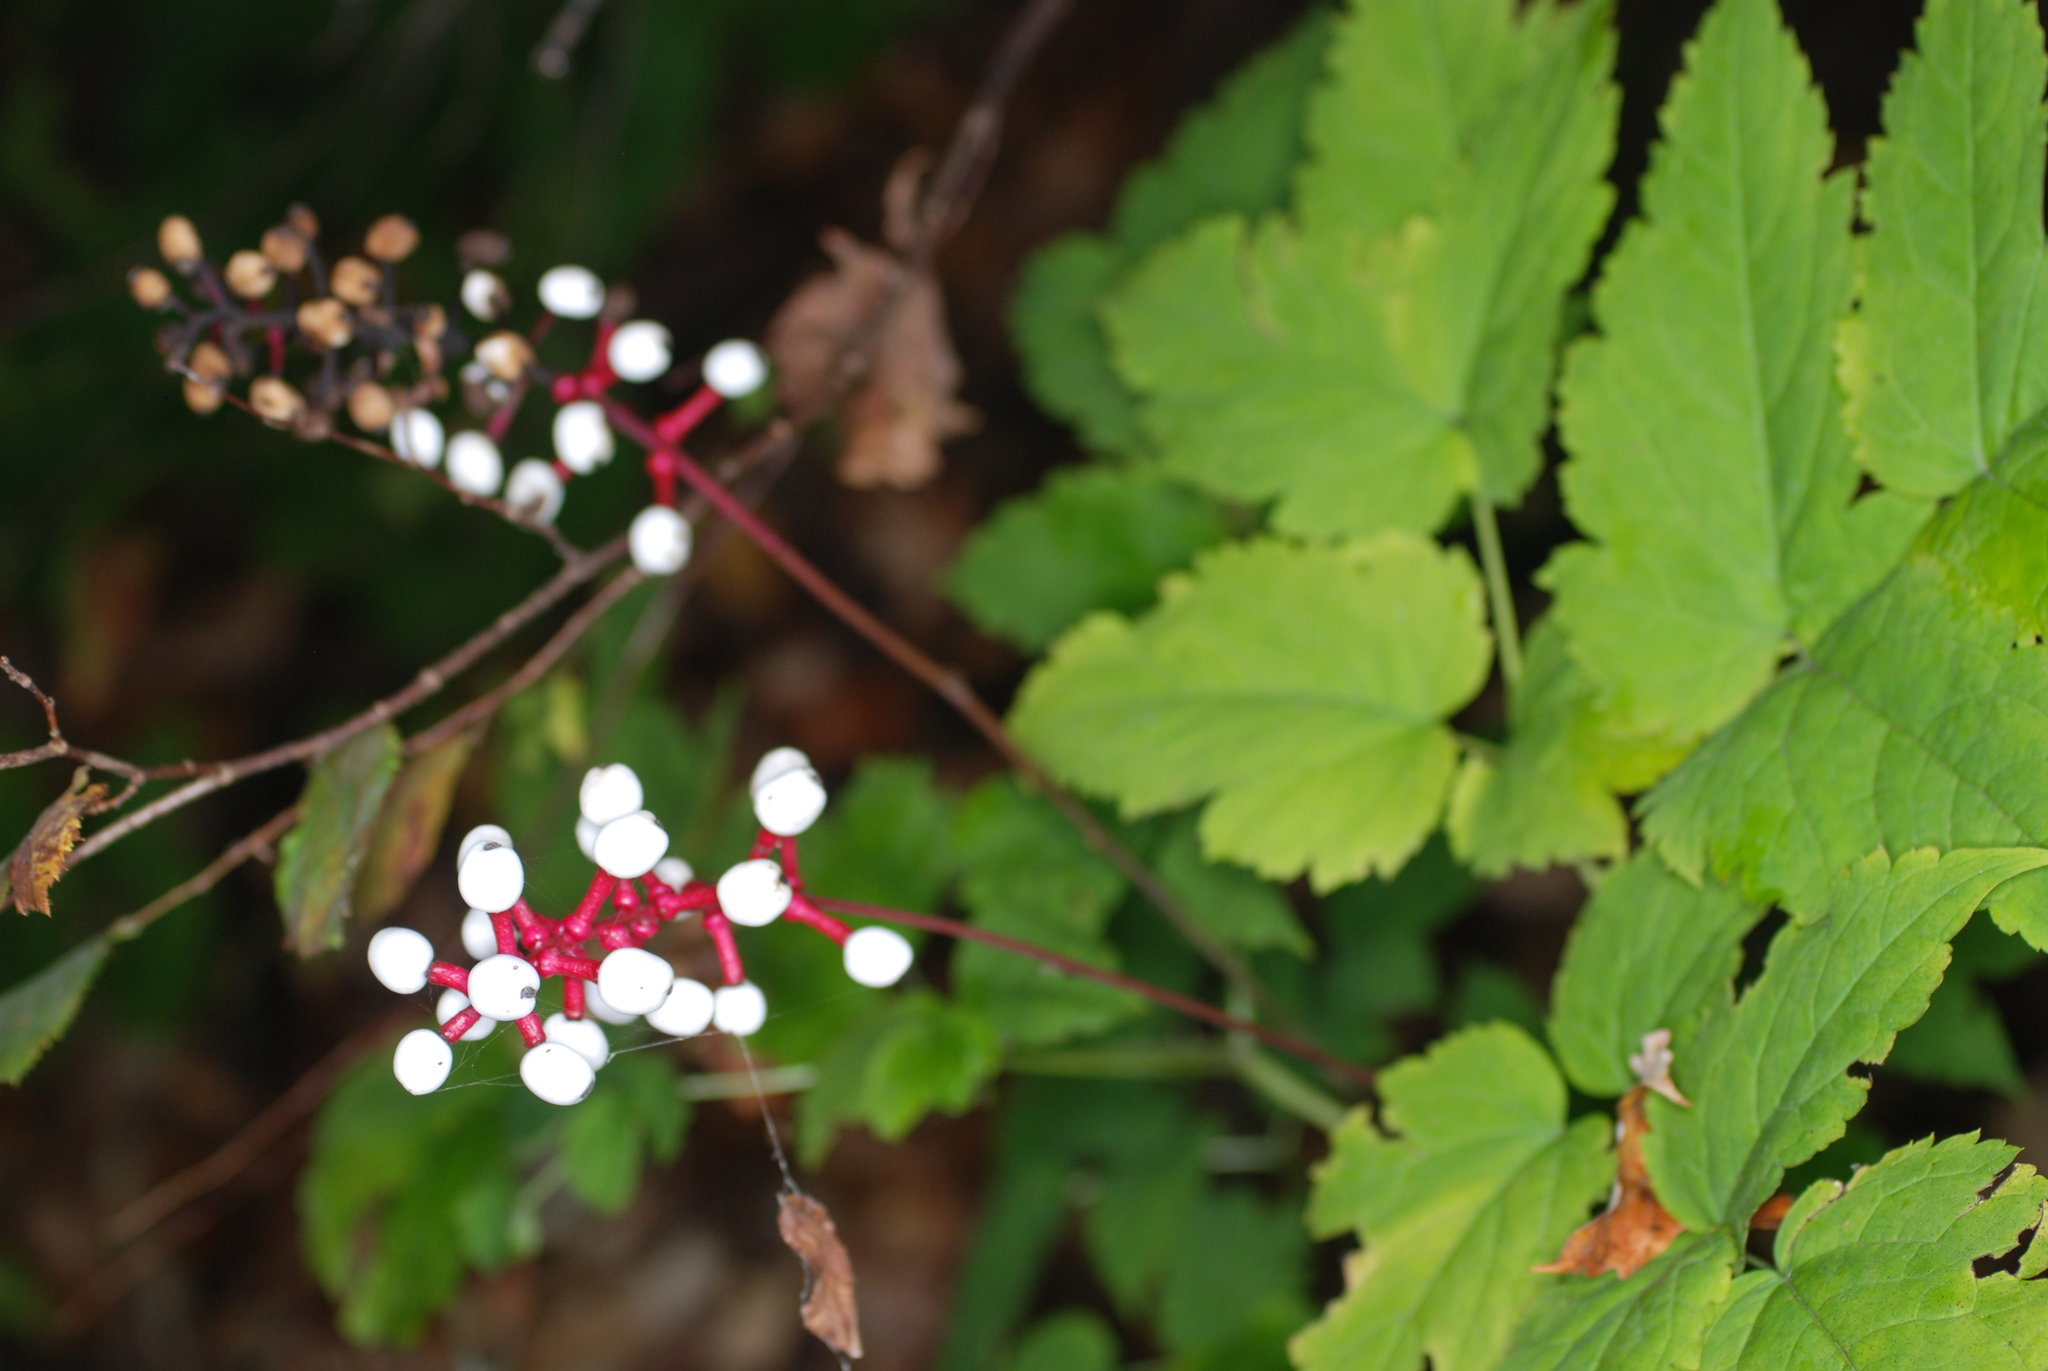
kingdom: Plantae
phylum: Tracheophyta
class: Magnoliopsida
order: Ranunculales
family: Ranunculaceae
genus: Actaea
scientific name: Actaea pachypoda
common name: Doll's-eyes
